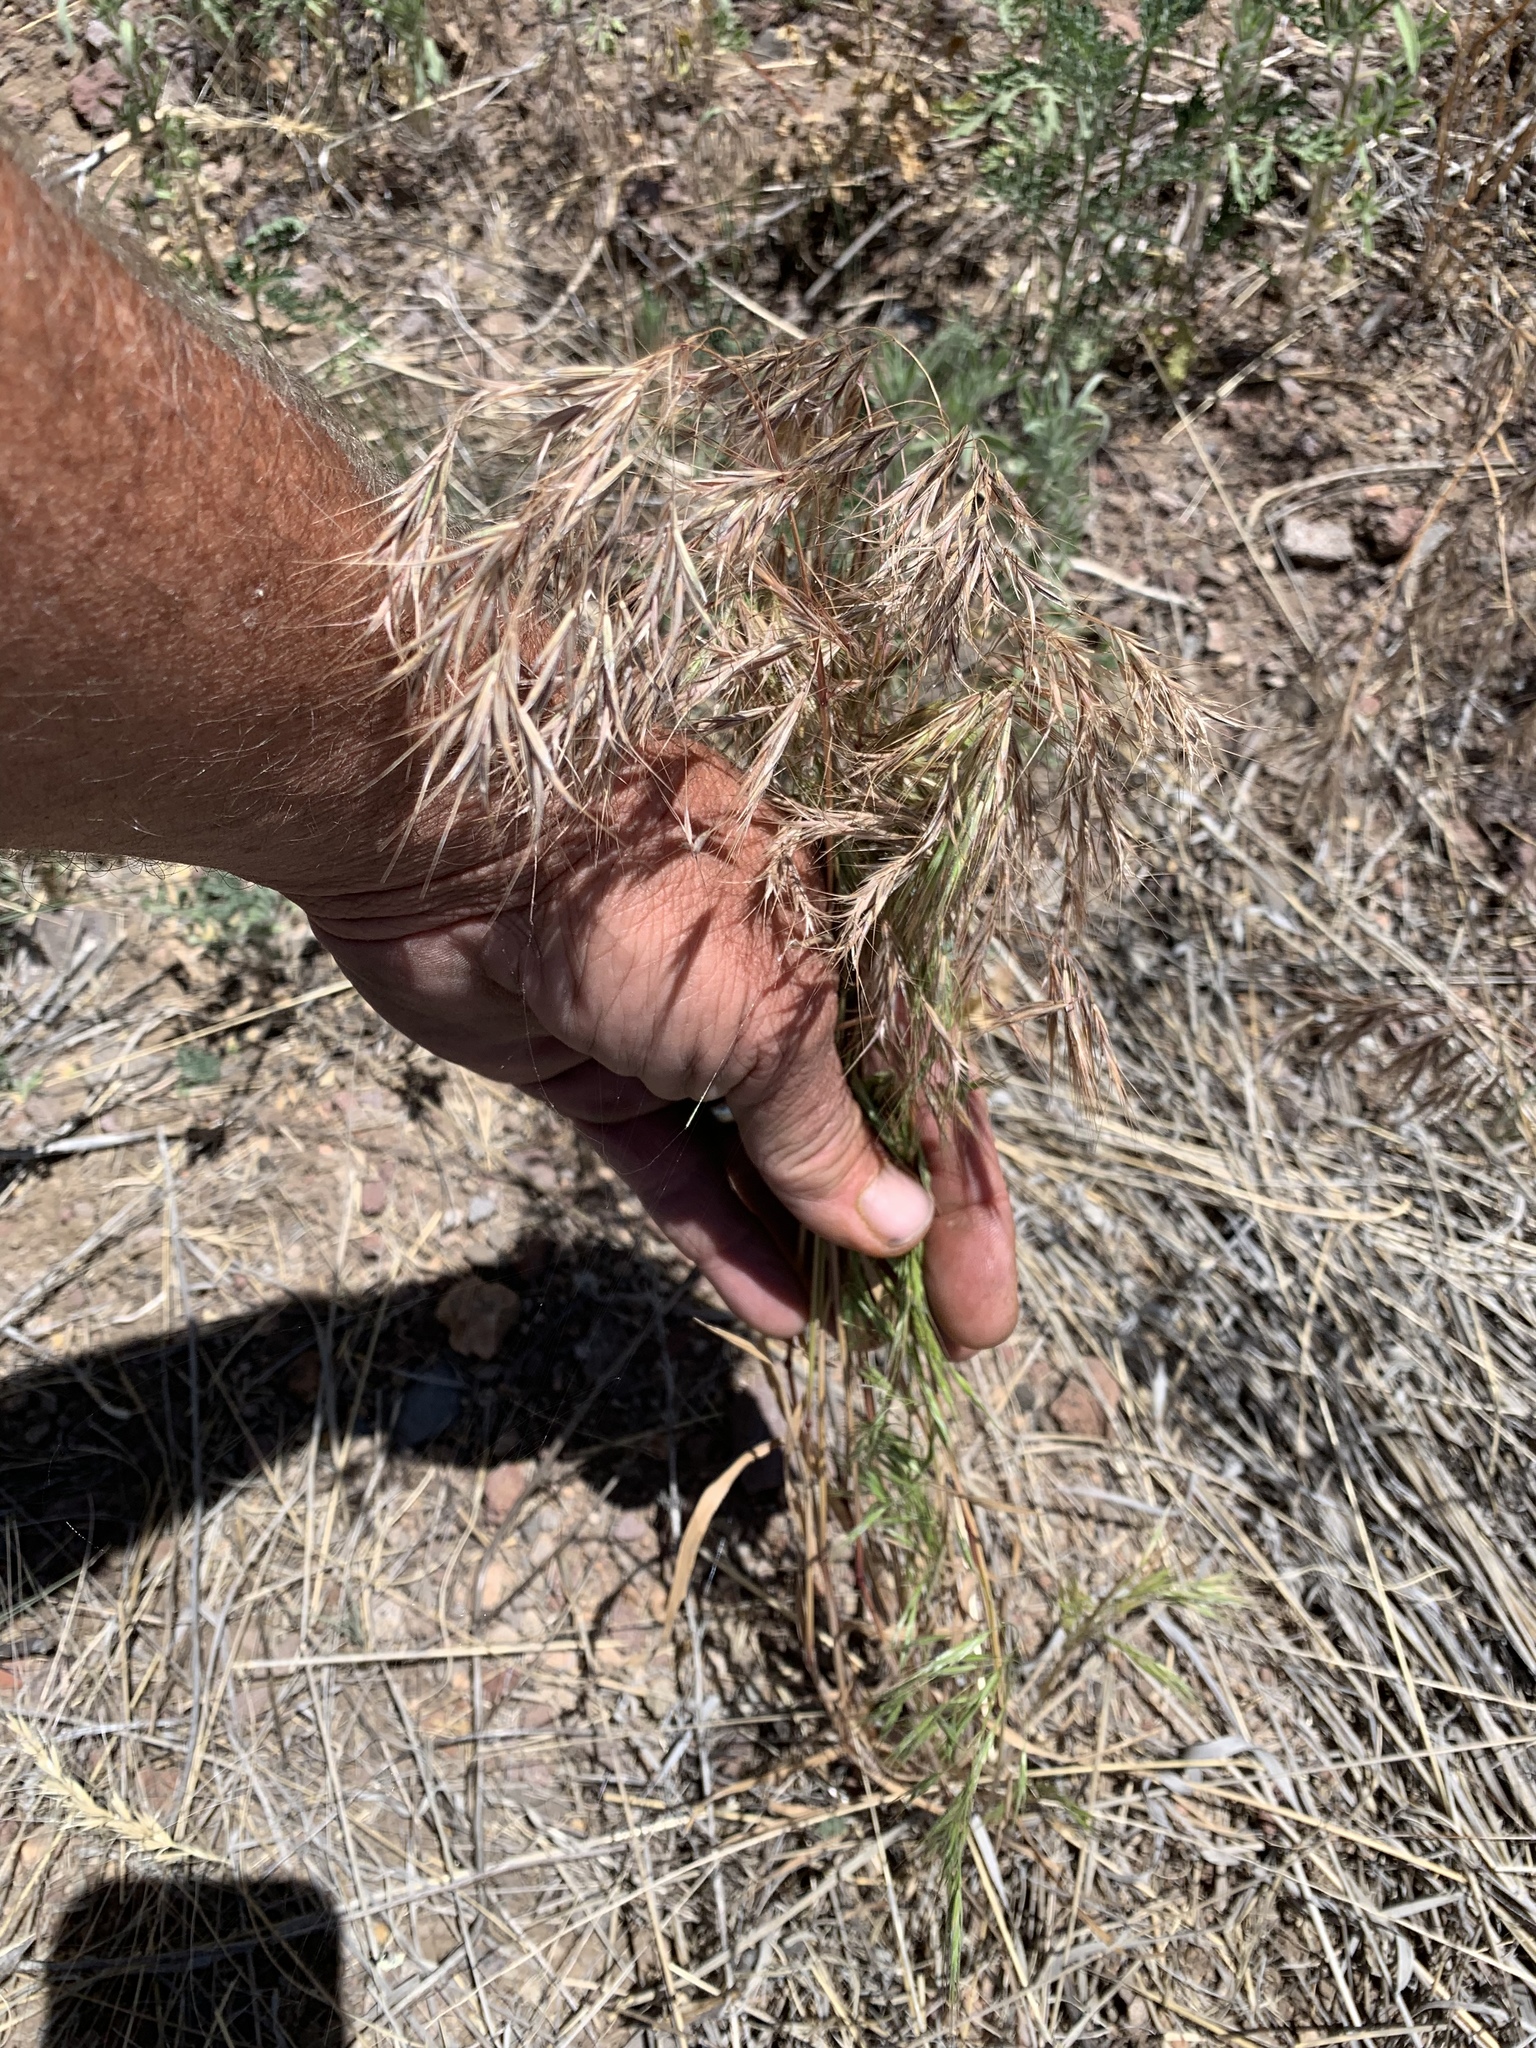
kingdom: Plantae
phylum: Tracheophyta
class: Liliopsida
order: Poales
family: Poaceae
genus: Bromus
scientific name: Bromus tectorum
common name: Cheatgrass
